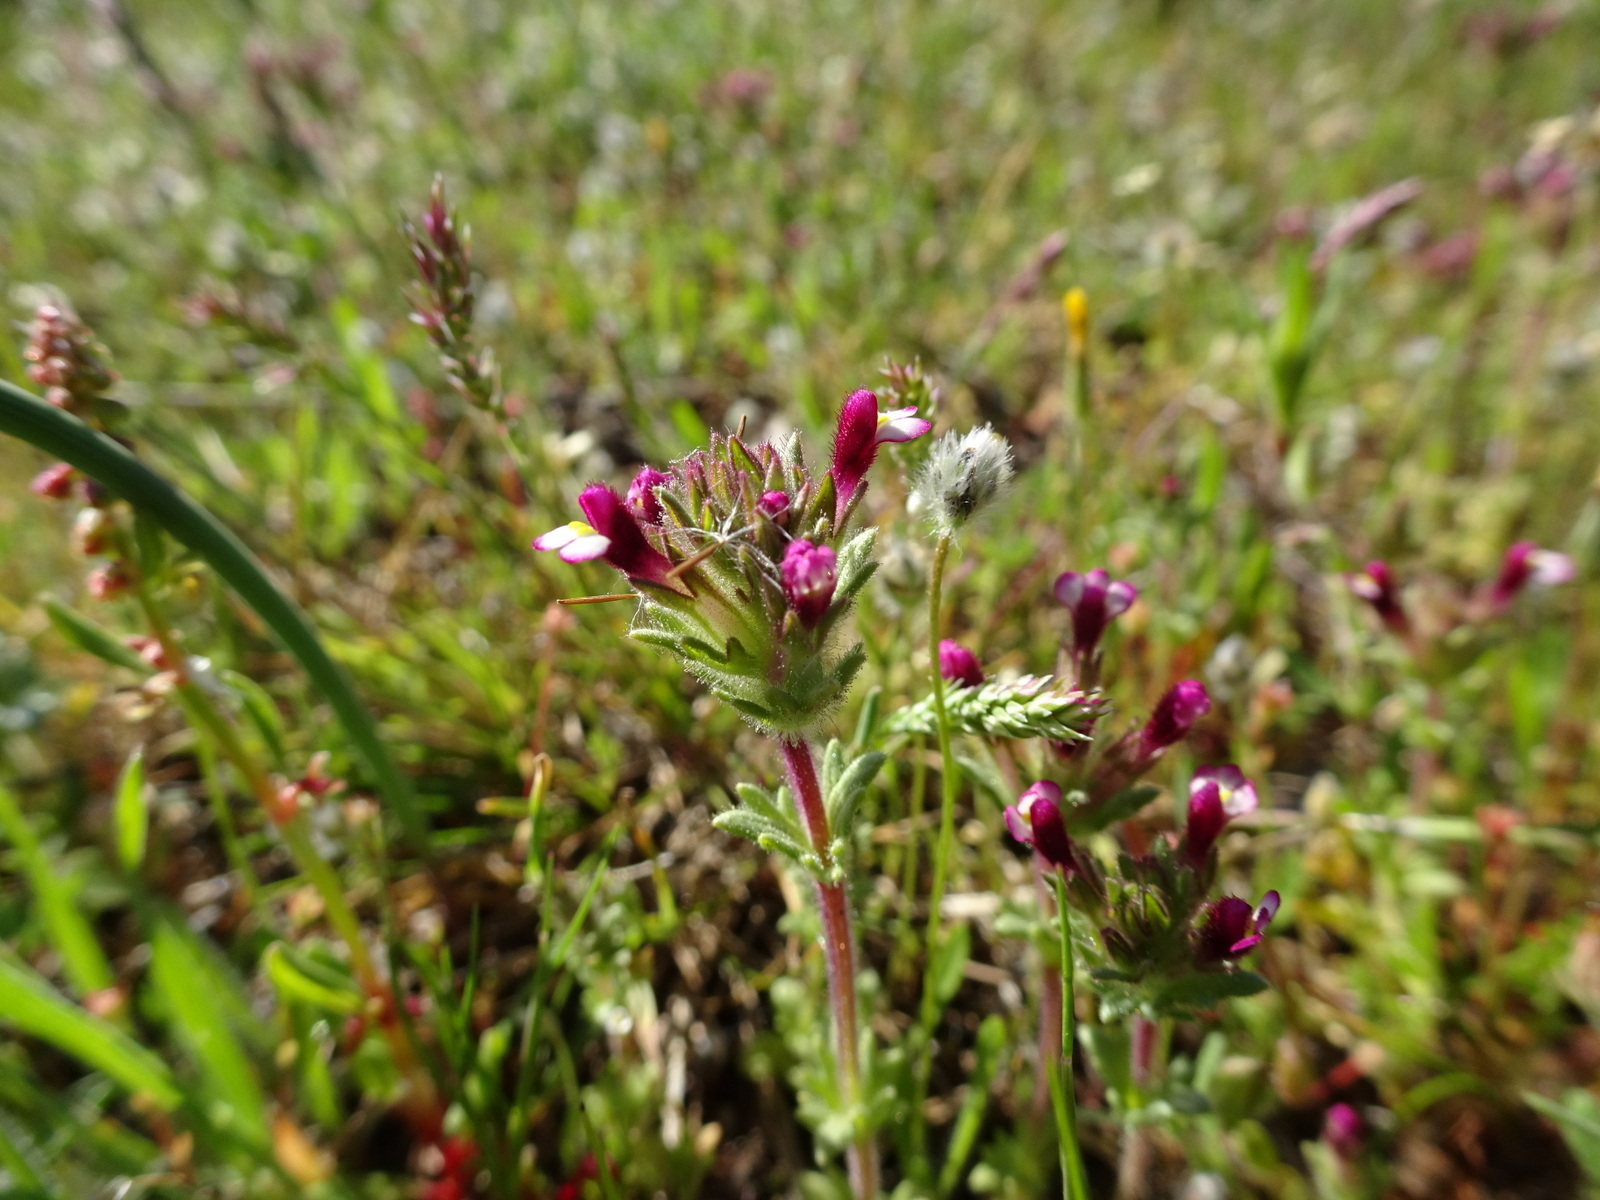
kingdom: Plantae
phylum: Tracheophyta
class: Magnoliopsida
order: Lamiales
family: Orobanchaceae
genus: Parentucellia
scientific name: Parentucellia latifolia
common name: Broadleaf glandweed
